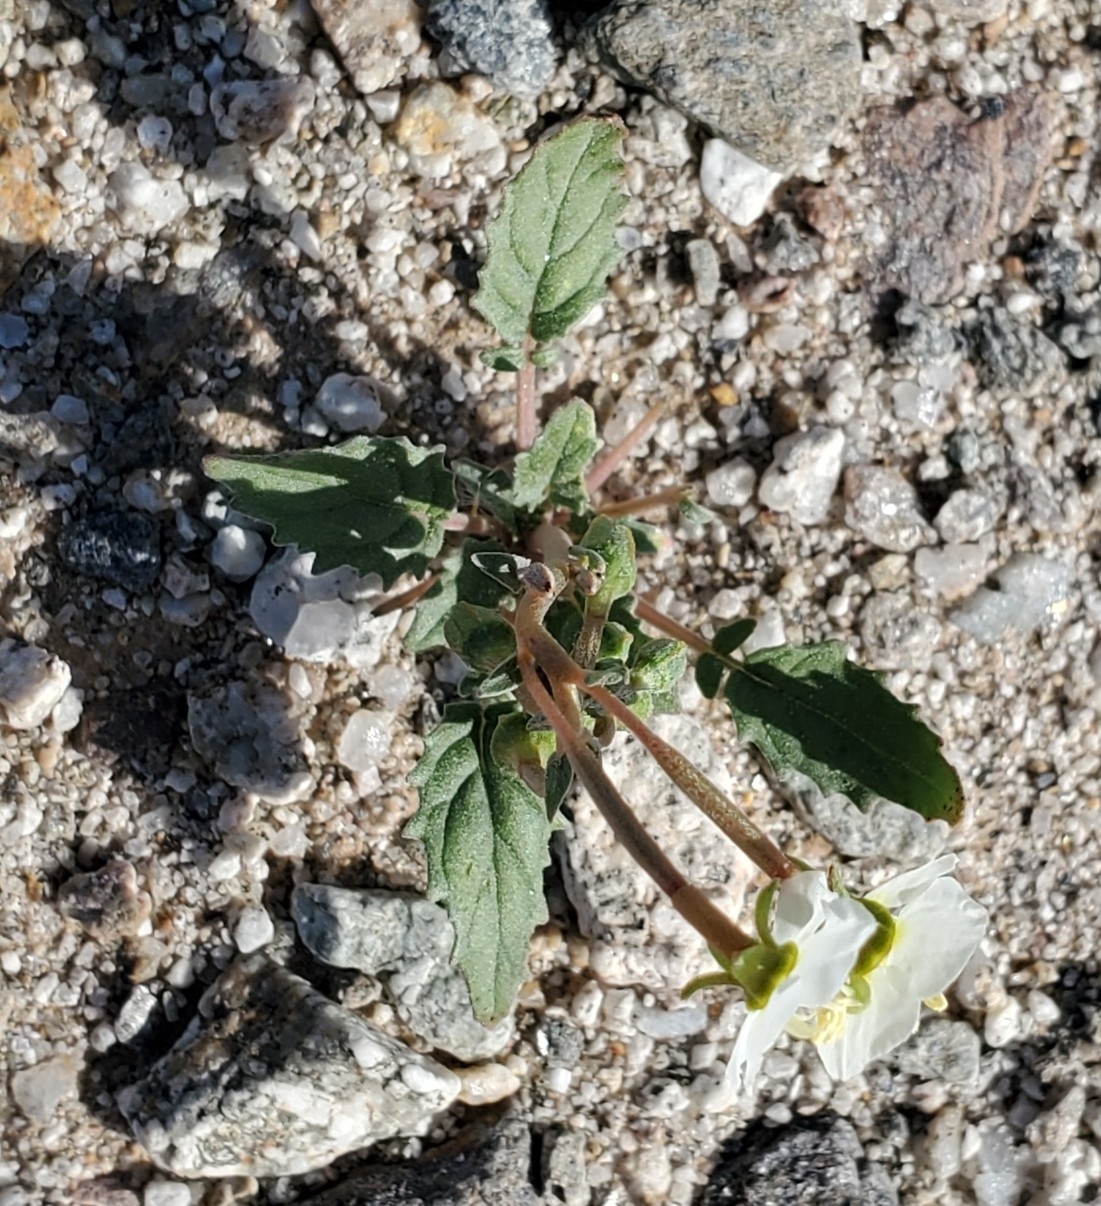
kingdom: Plantae
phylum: Tracheophyta
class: Magnoliopsida
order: Myrtales
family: Onagraceae
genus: Chylismia
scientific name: Chylismia claviformis
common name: Browneyes
